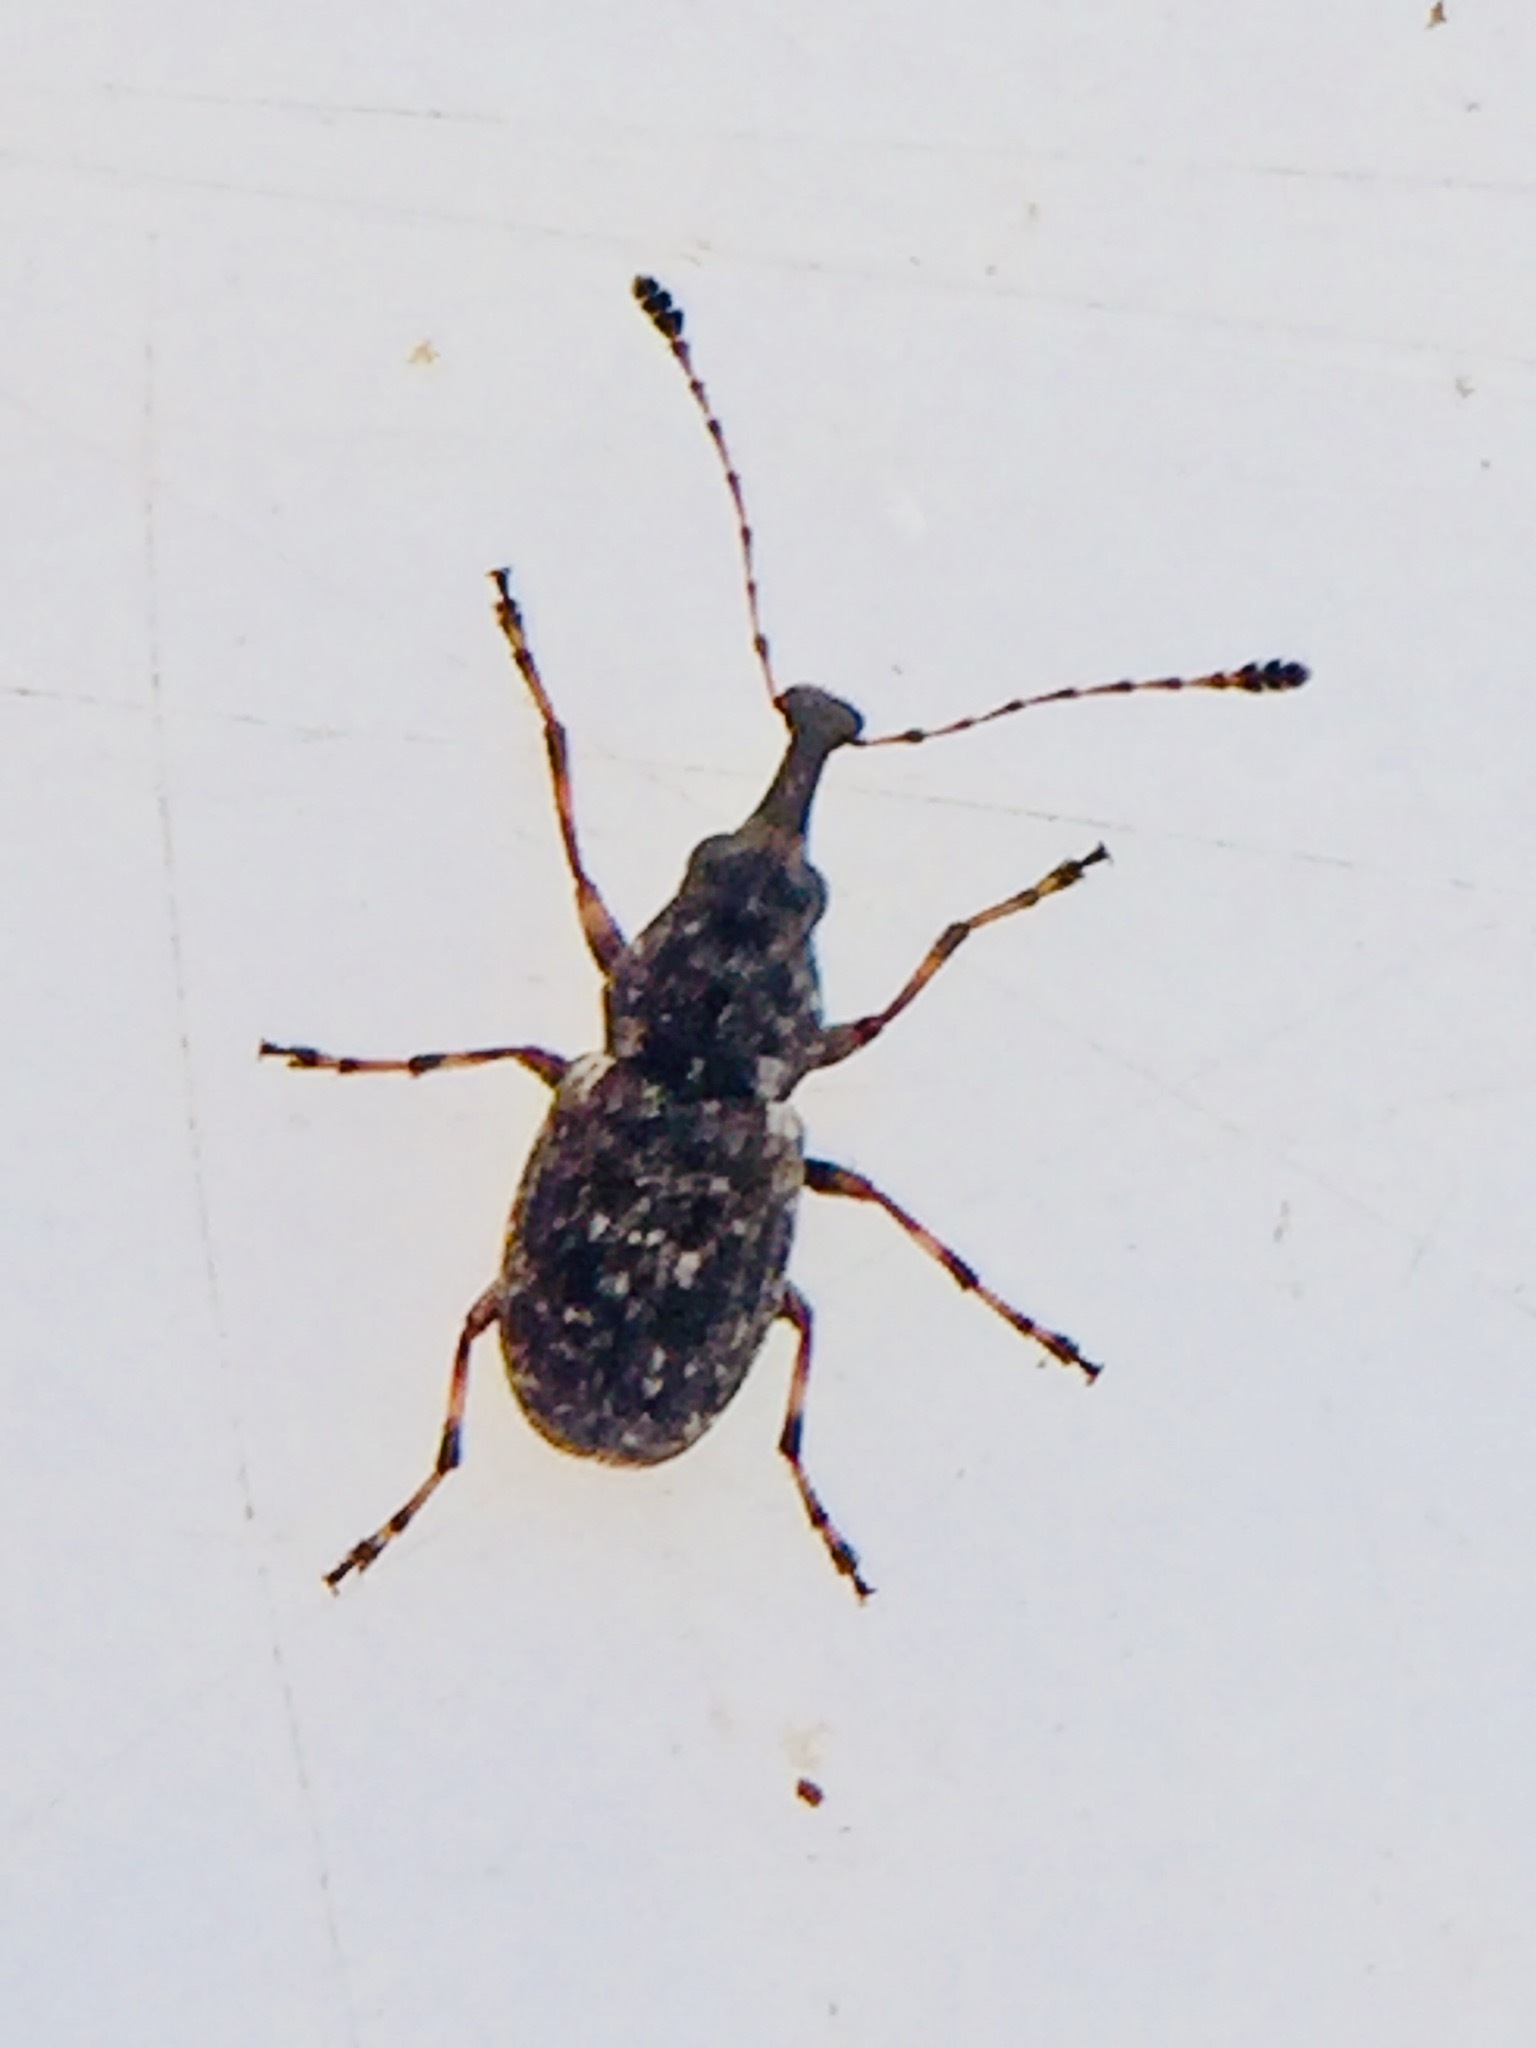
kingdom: Animalia
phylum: Arthropoda
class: Insecta
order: Coleoptera
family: Anthribidae
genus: Helmoreus
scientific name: Helmoreus
